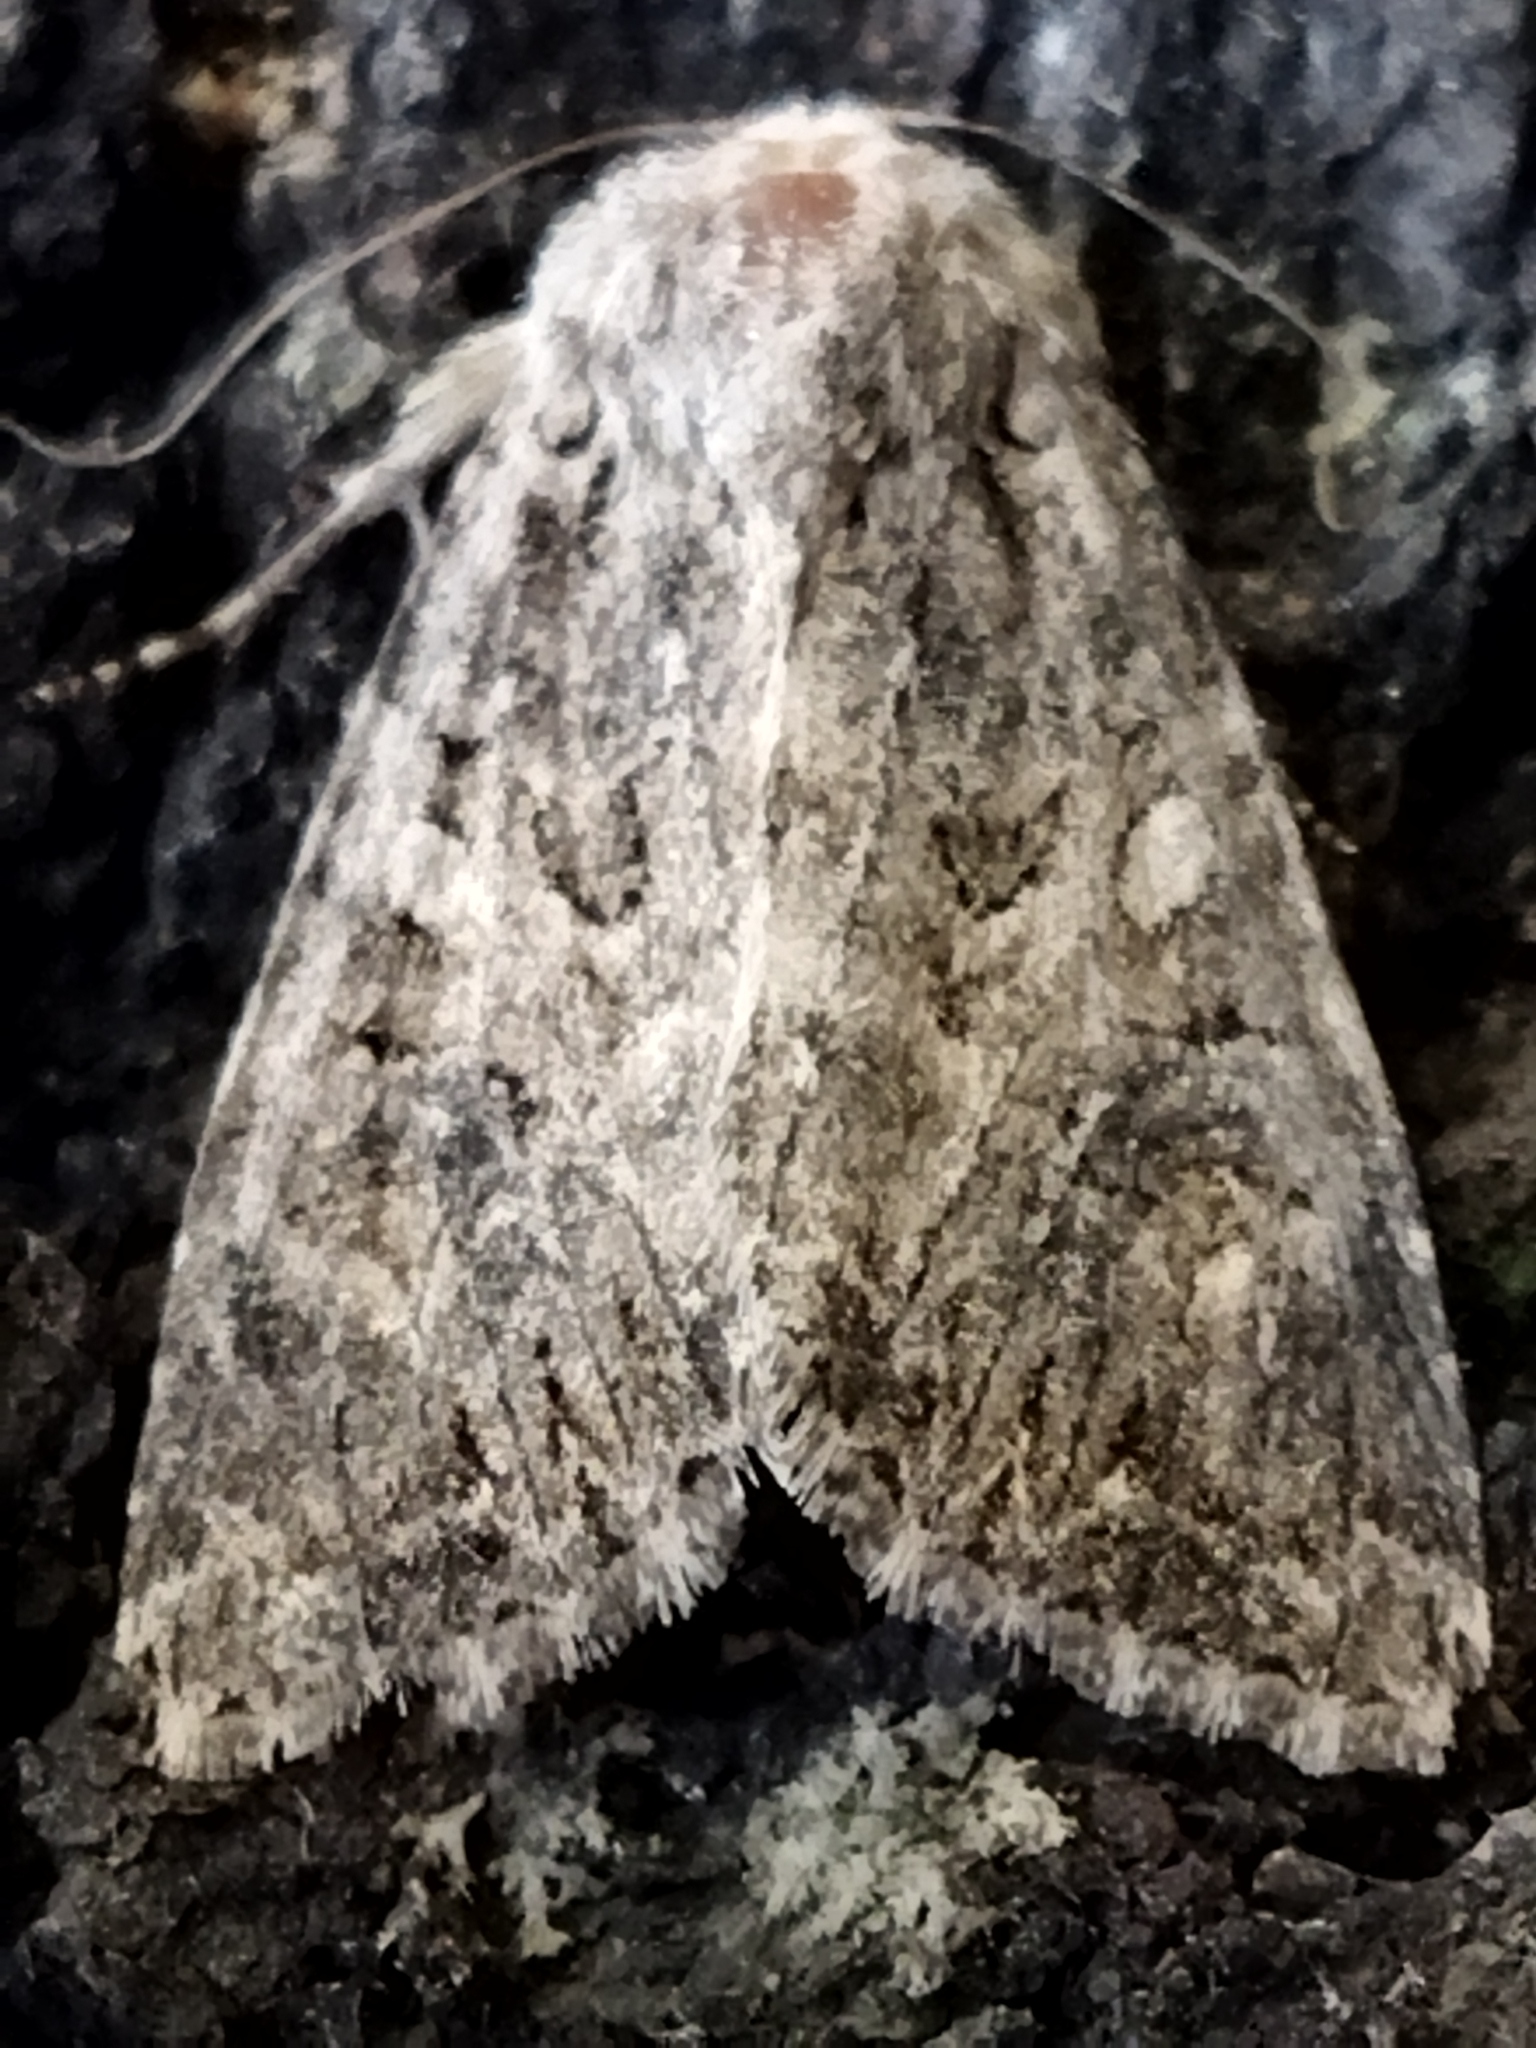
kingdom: Animalia
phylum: Arthropoda
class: Insecta
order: Lepidoptera
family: Noctuidae
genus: Anarta
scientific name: Anarta trifolii
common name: Clover cutworm moth
